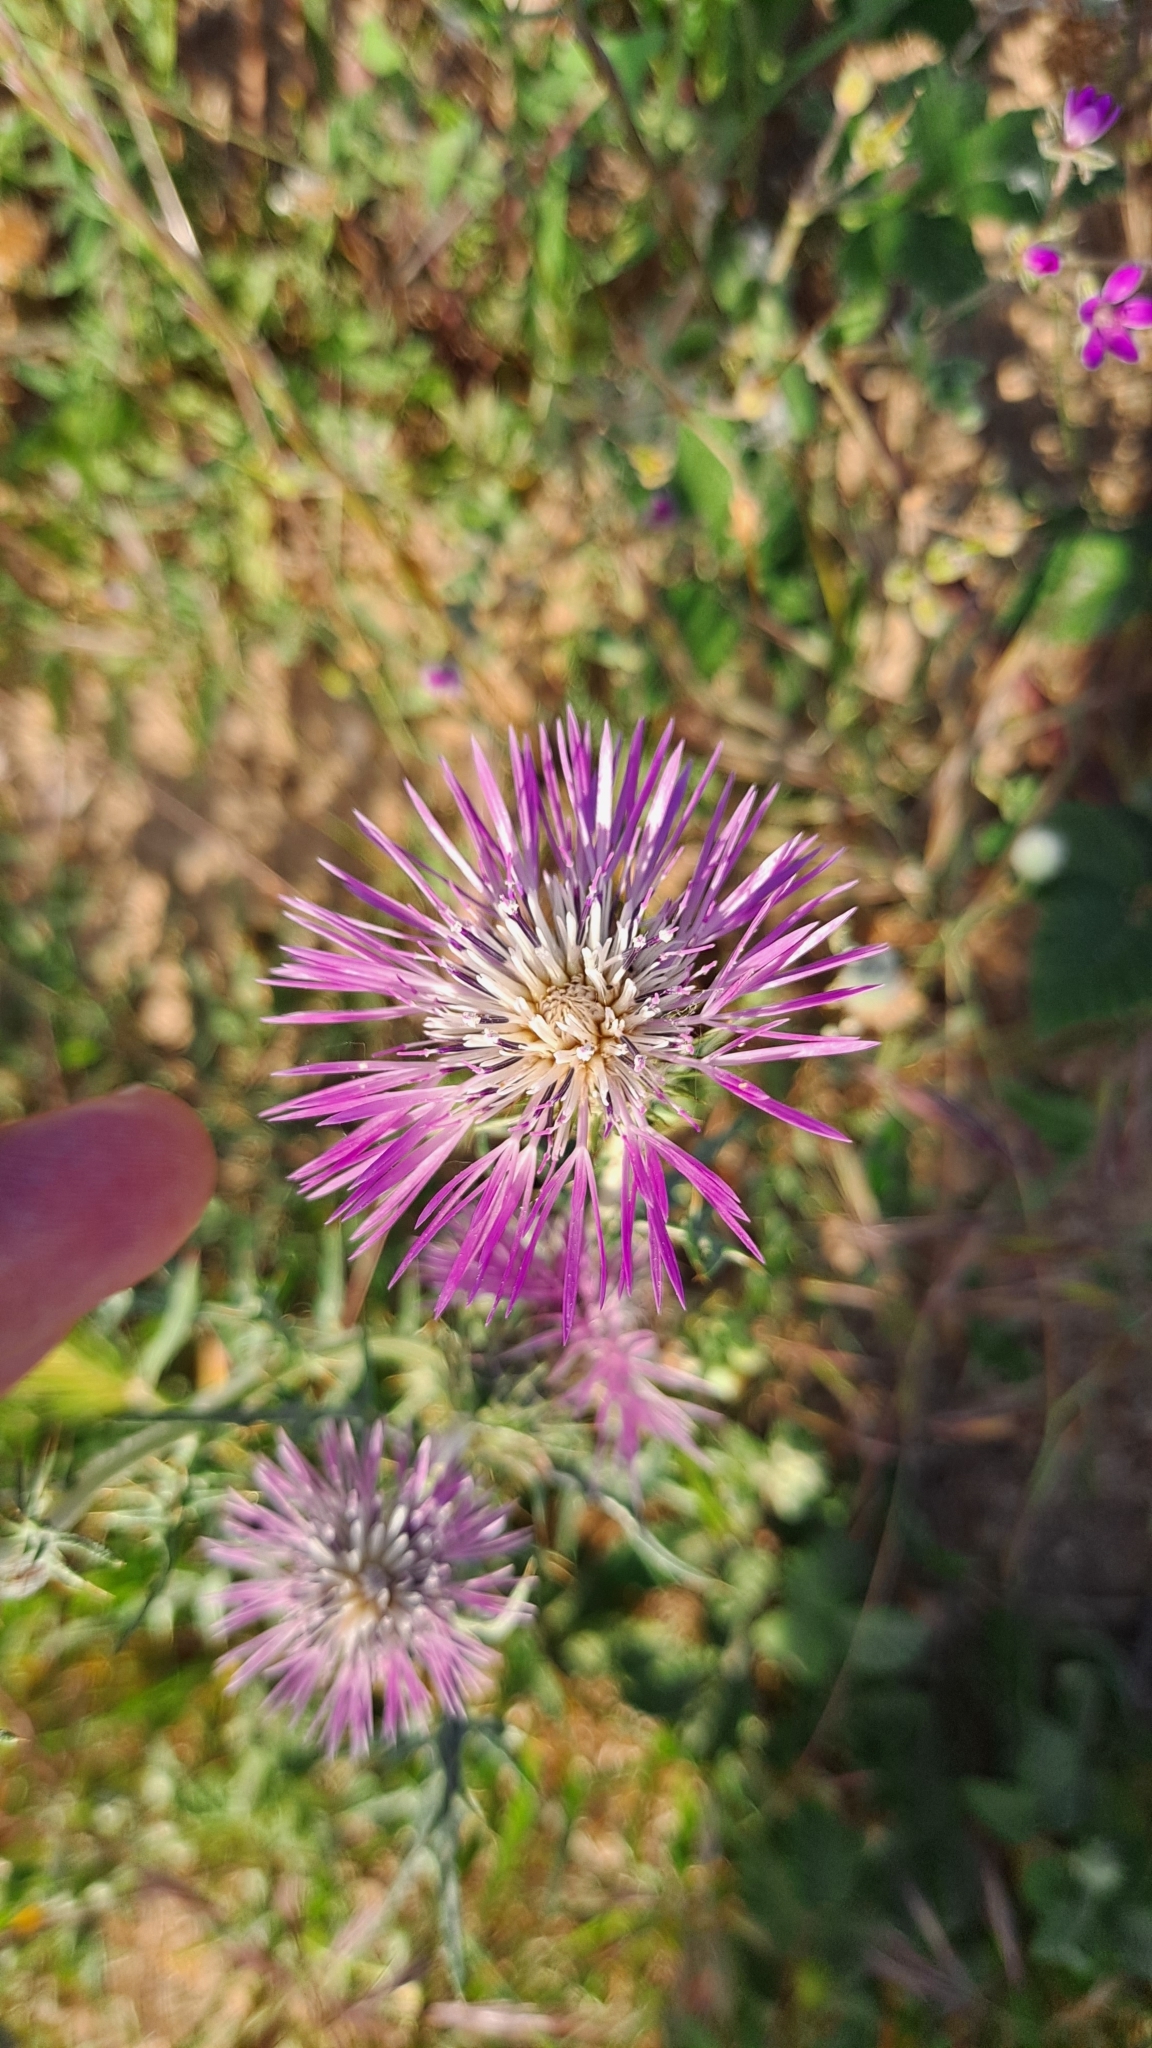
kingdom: Plantae
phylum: Tracheophyta
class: Magnoliopsida
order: Asterales
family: Asteraceae
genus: Galactites
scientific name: Galactites tomentosa
